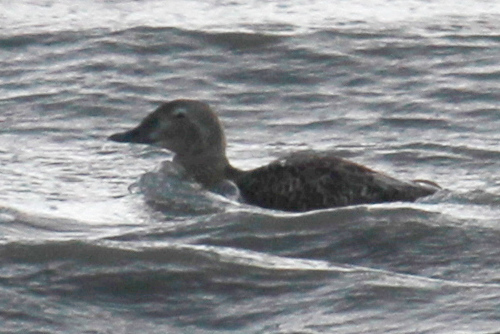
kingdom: Animalia
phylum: Chordata
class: Aves
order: Anseriformes
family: Anatidae
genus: Somateria
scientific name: Somateria spectabilis
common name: King eider
